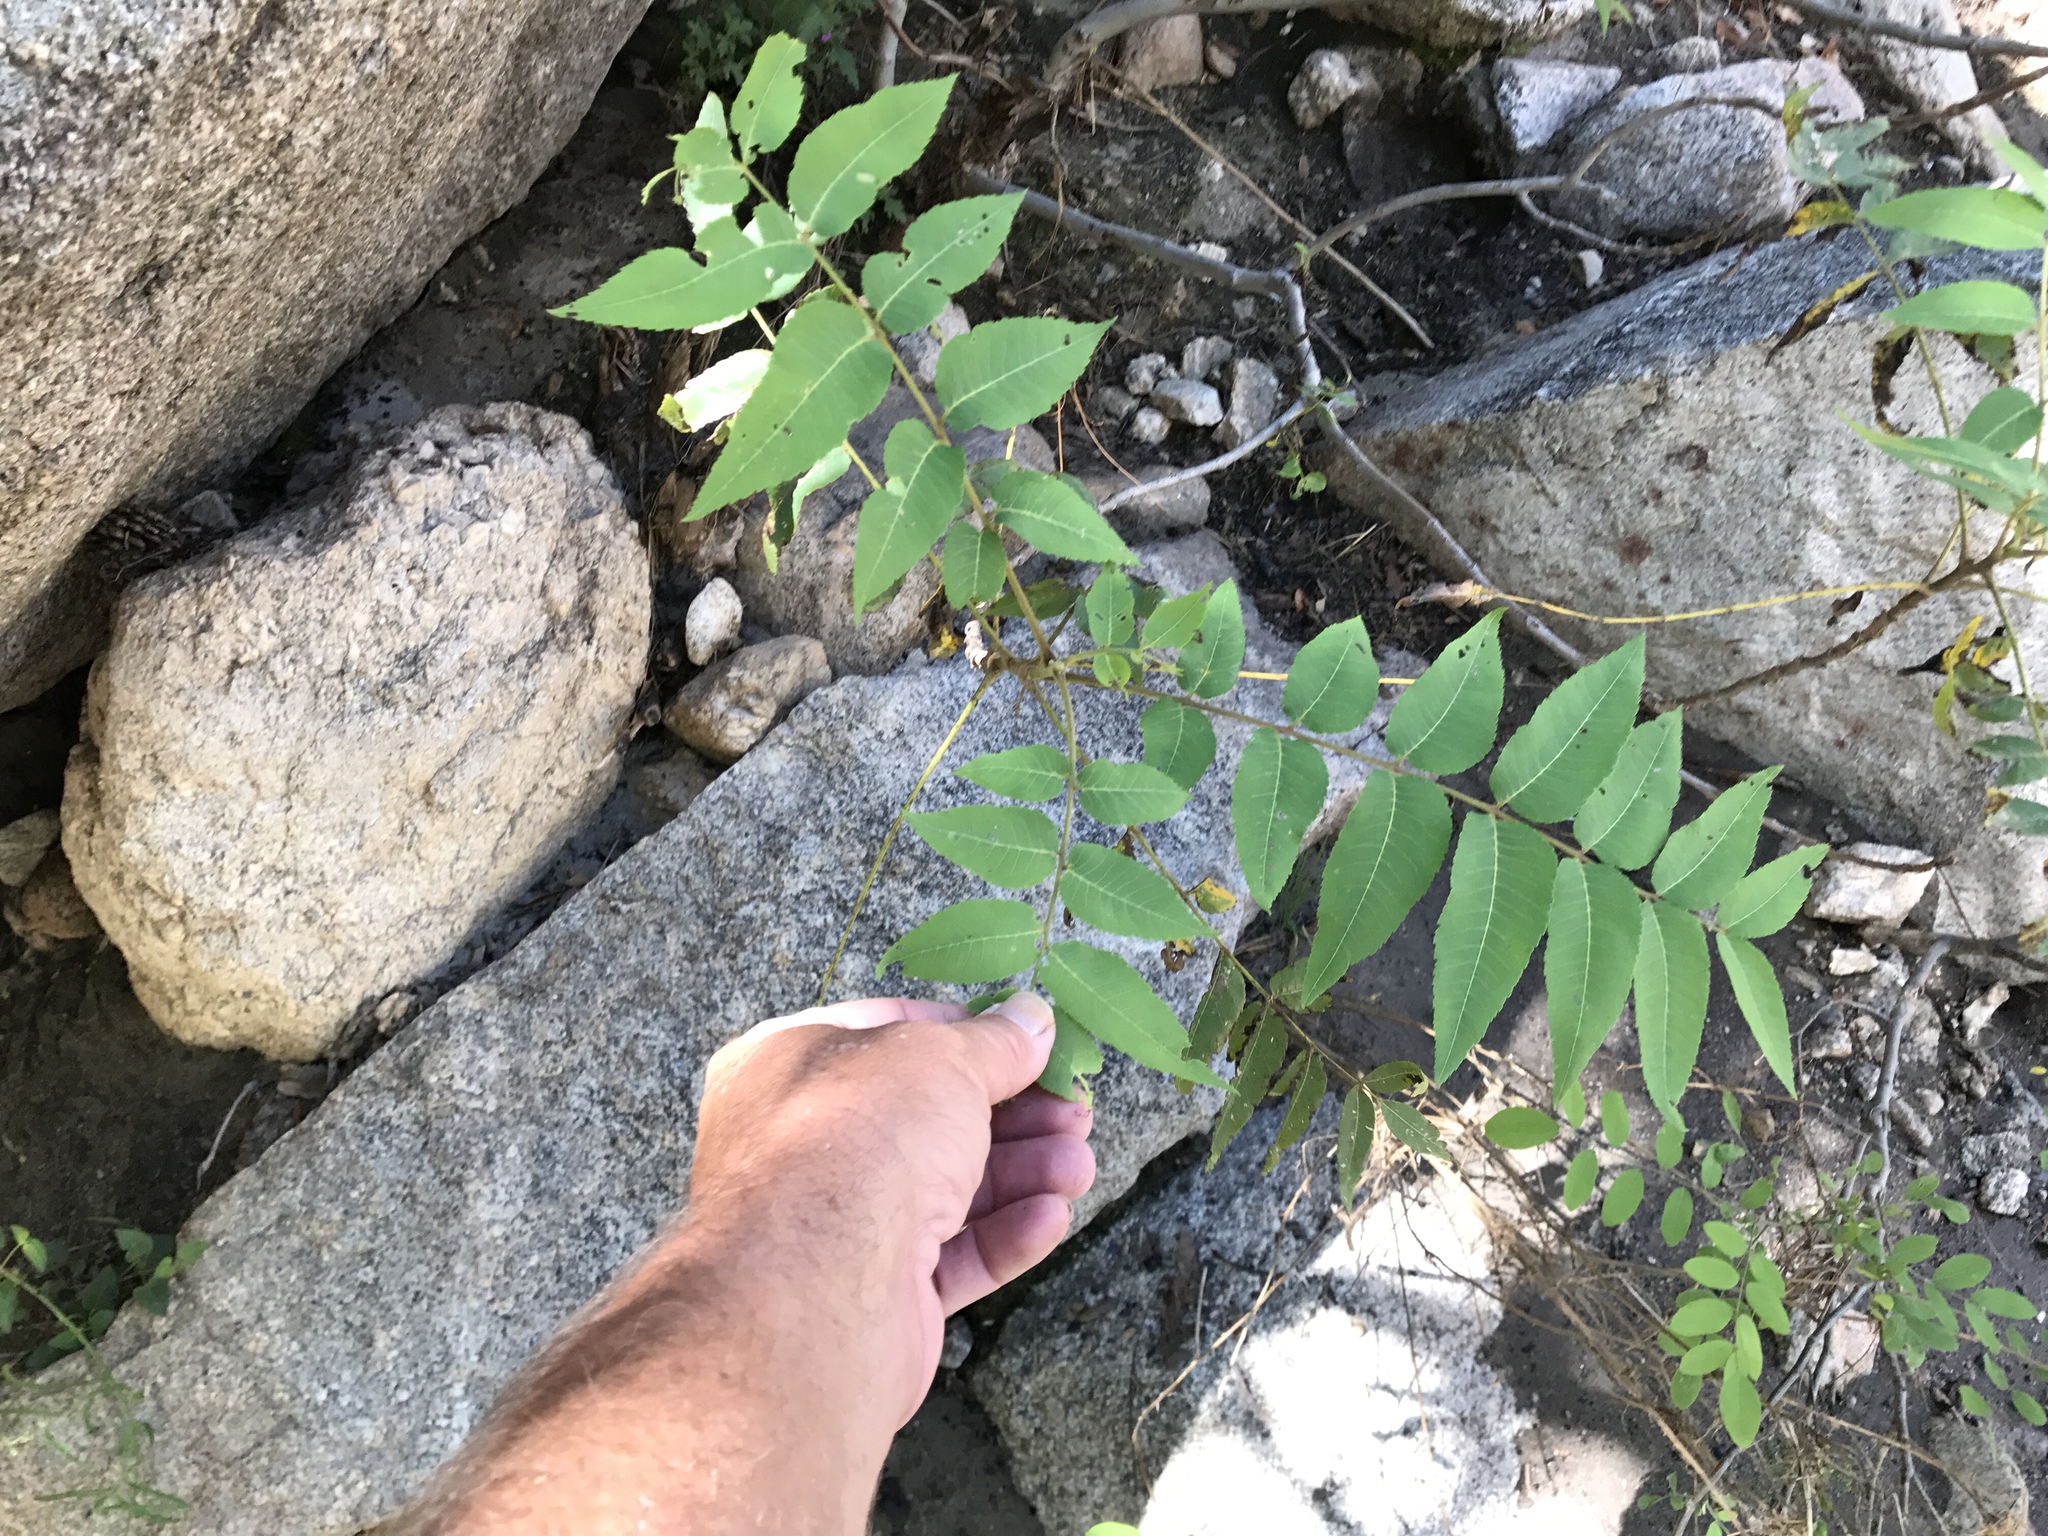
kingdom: Plantae
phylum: Tracheophyta
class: Magnoliopsida
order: Fagales
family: Juglandaceae
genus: Juglans
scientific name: Juglans major
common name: Arizona walnut
